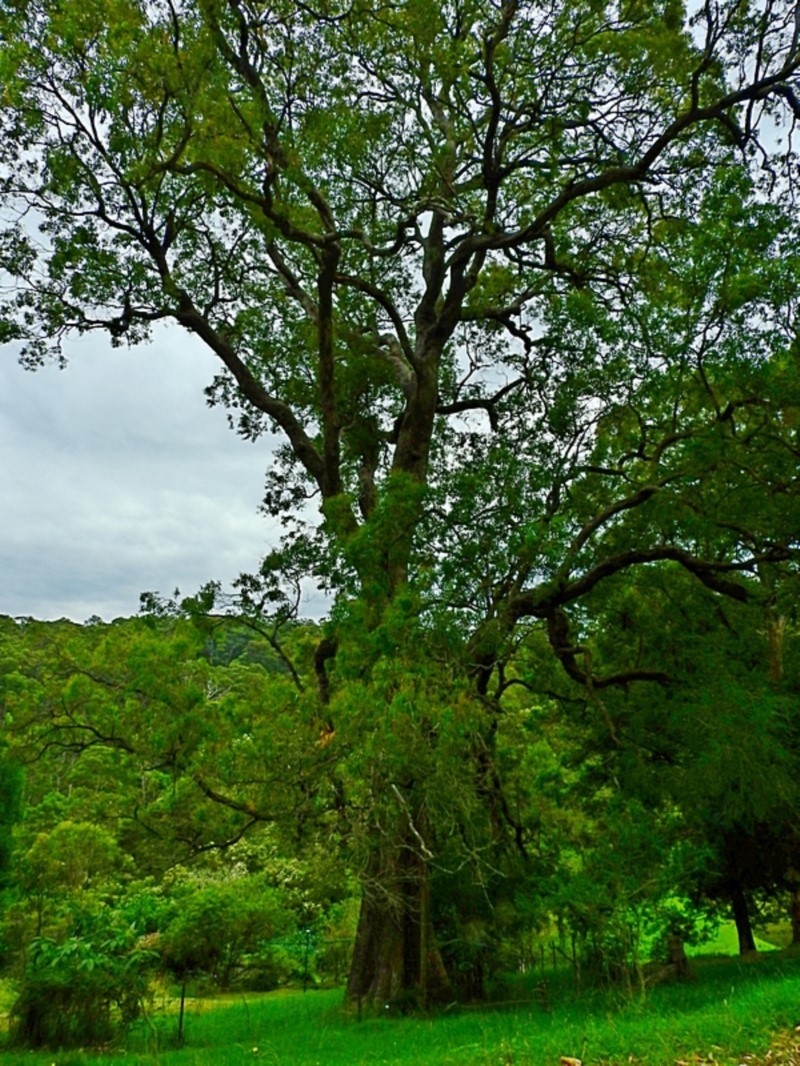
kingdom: Plantae
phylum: Tracheophyta
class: Magnoliopsida
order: Myrtales
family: Myrtaceae
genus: Angophora
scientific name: Angophora floribunda
